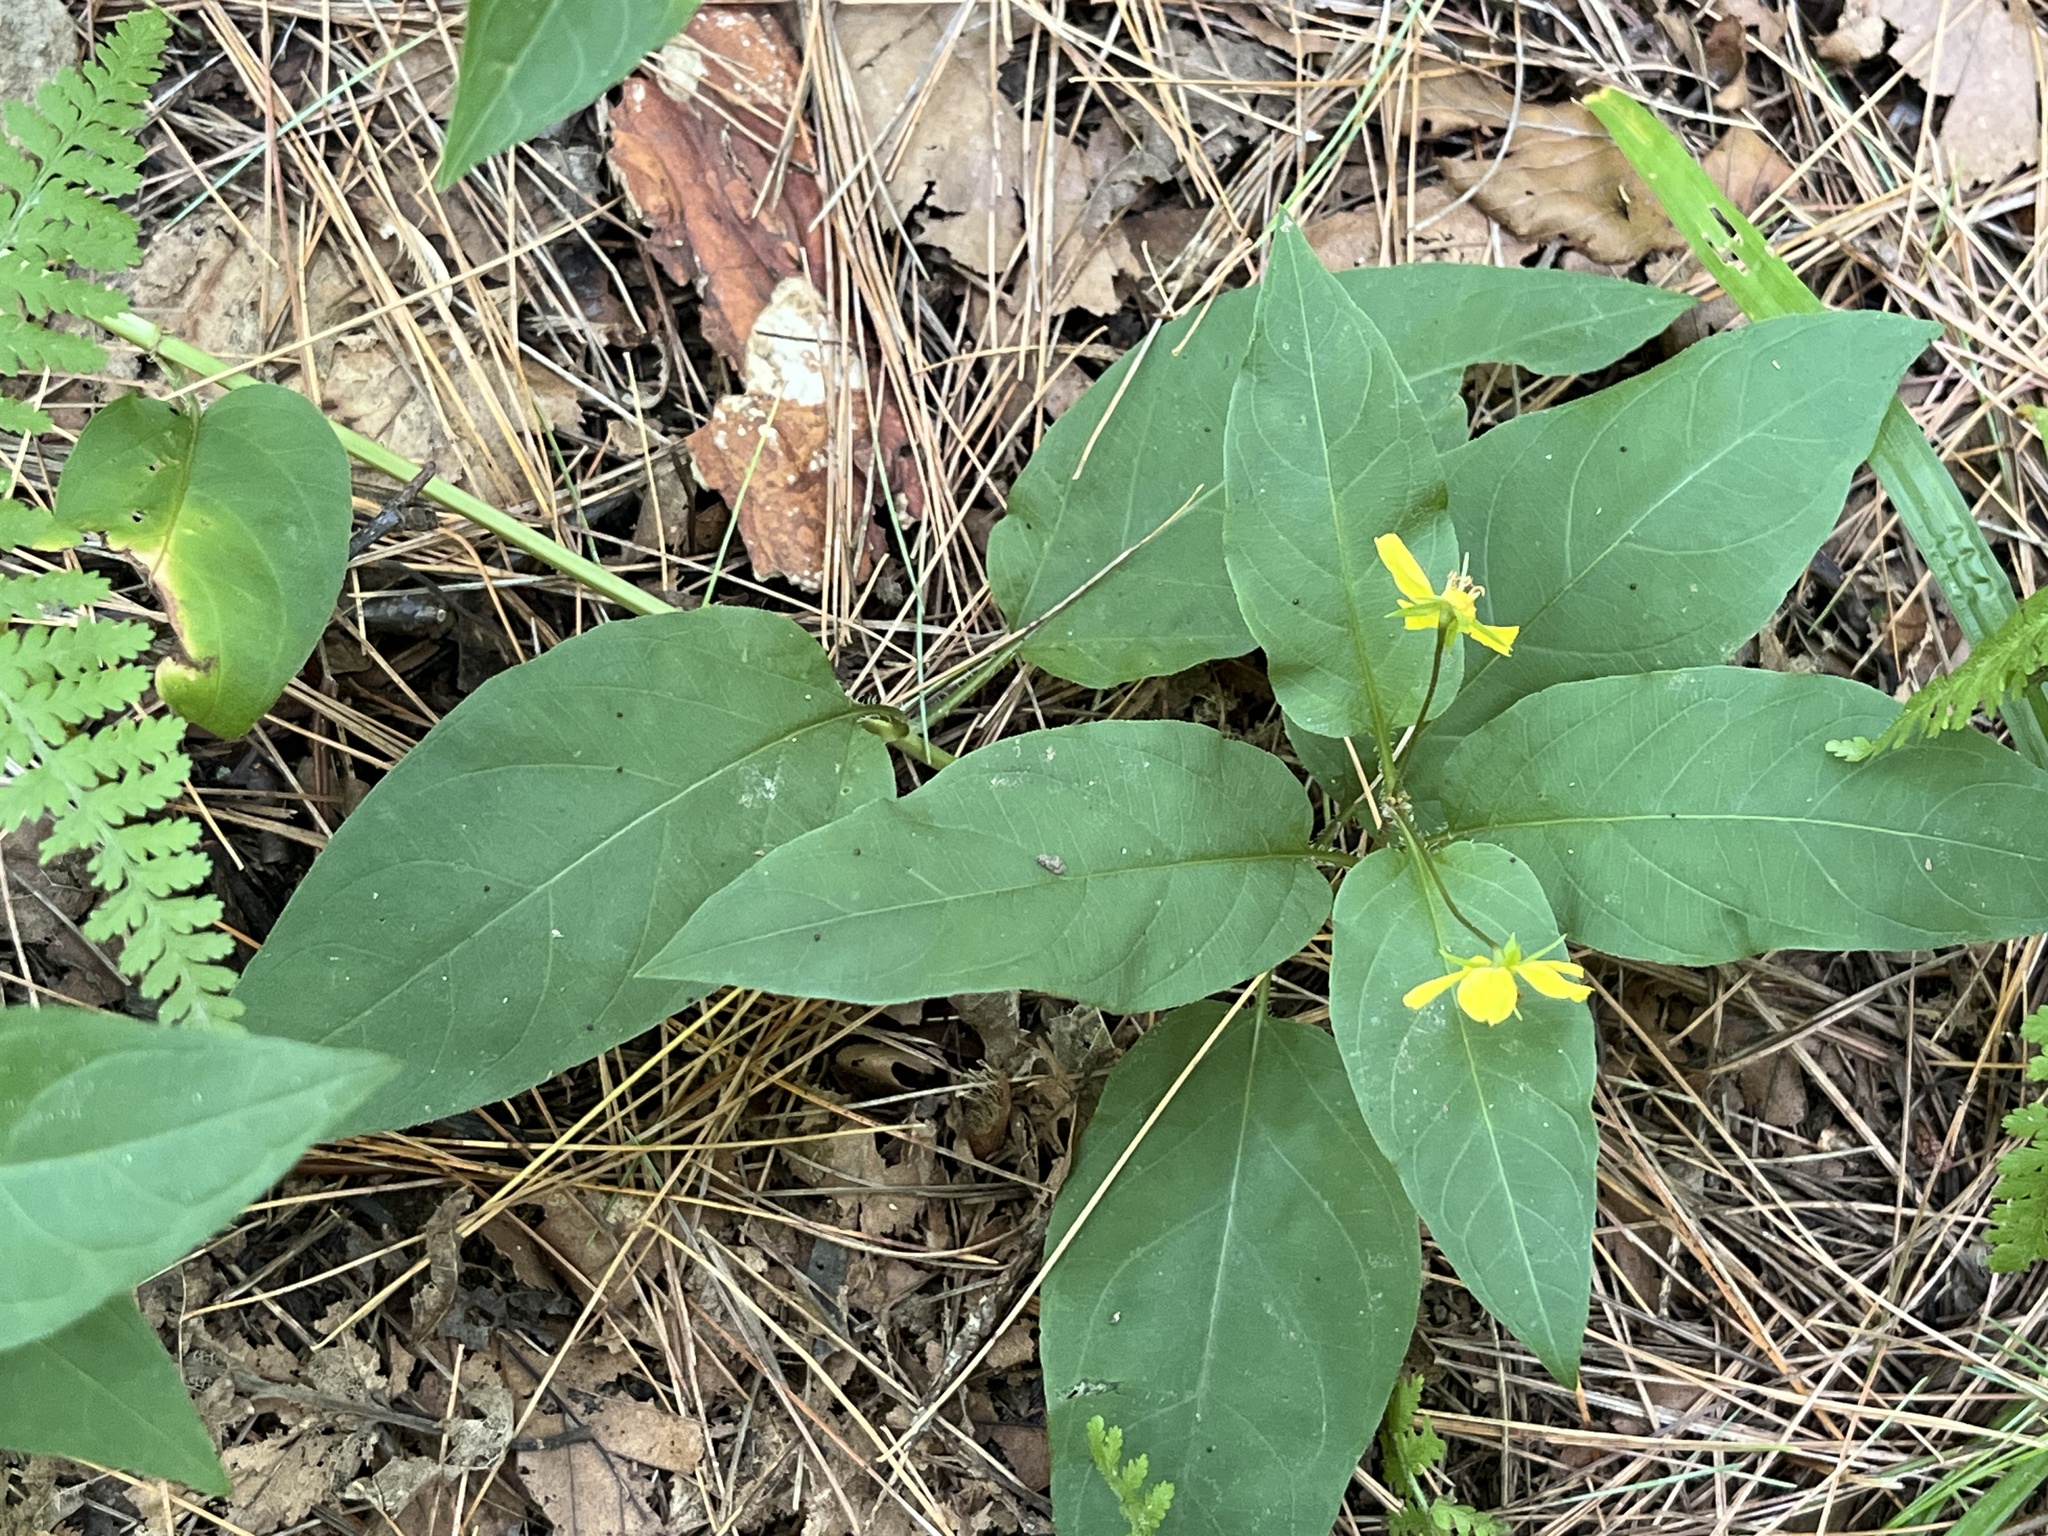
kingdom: Plantae
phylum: Tracheophyta
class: Magnoliopsida
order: Ericales
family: Primulaceae
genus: Lysimachia
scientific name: Lysimachia ciliata
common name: Fringed loosestrife
